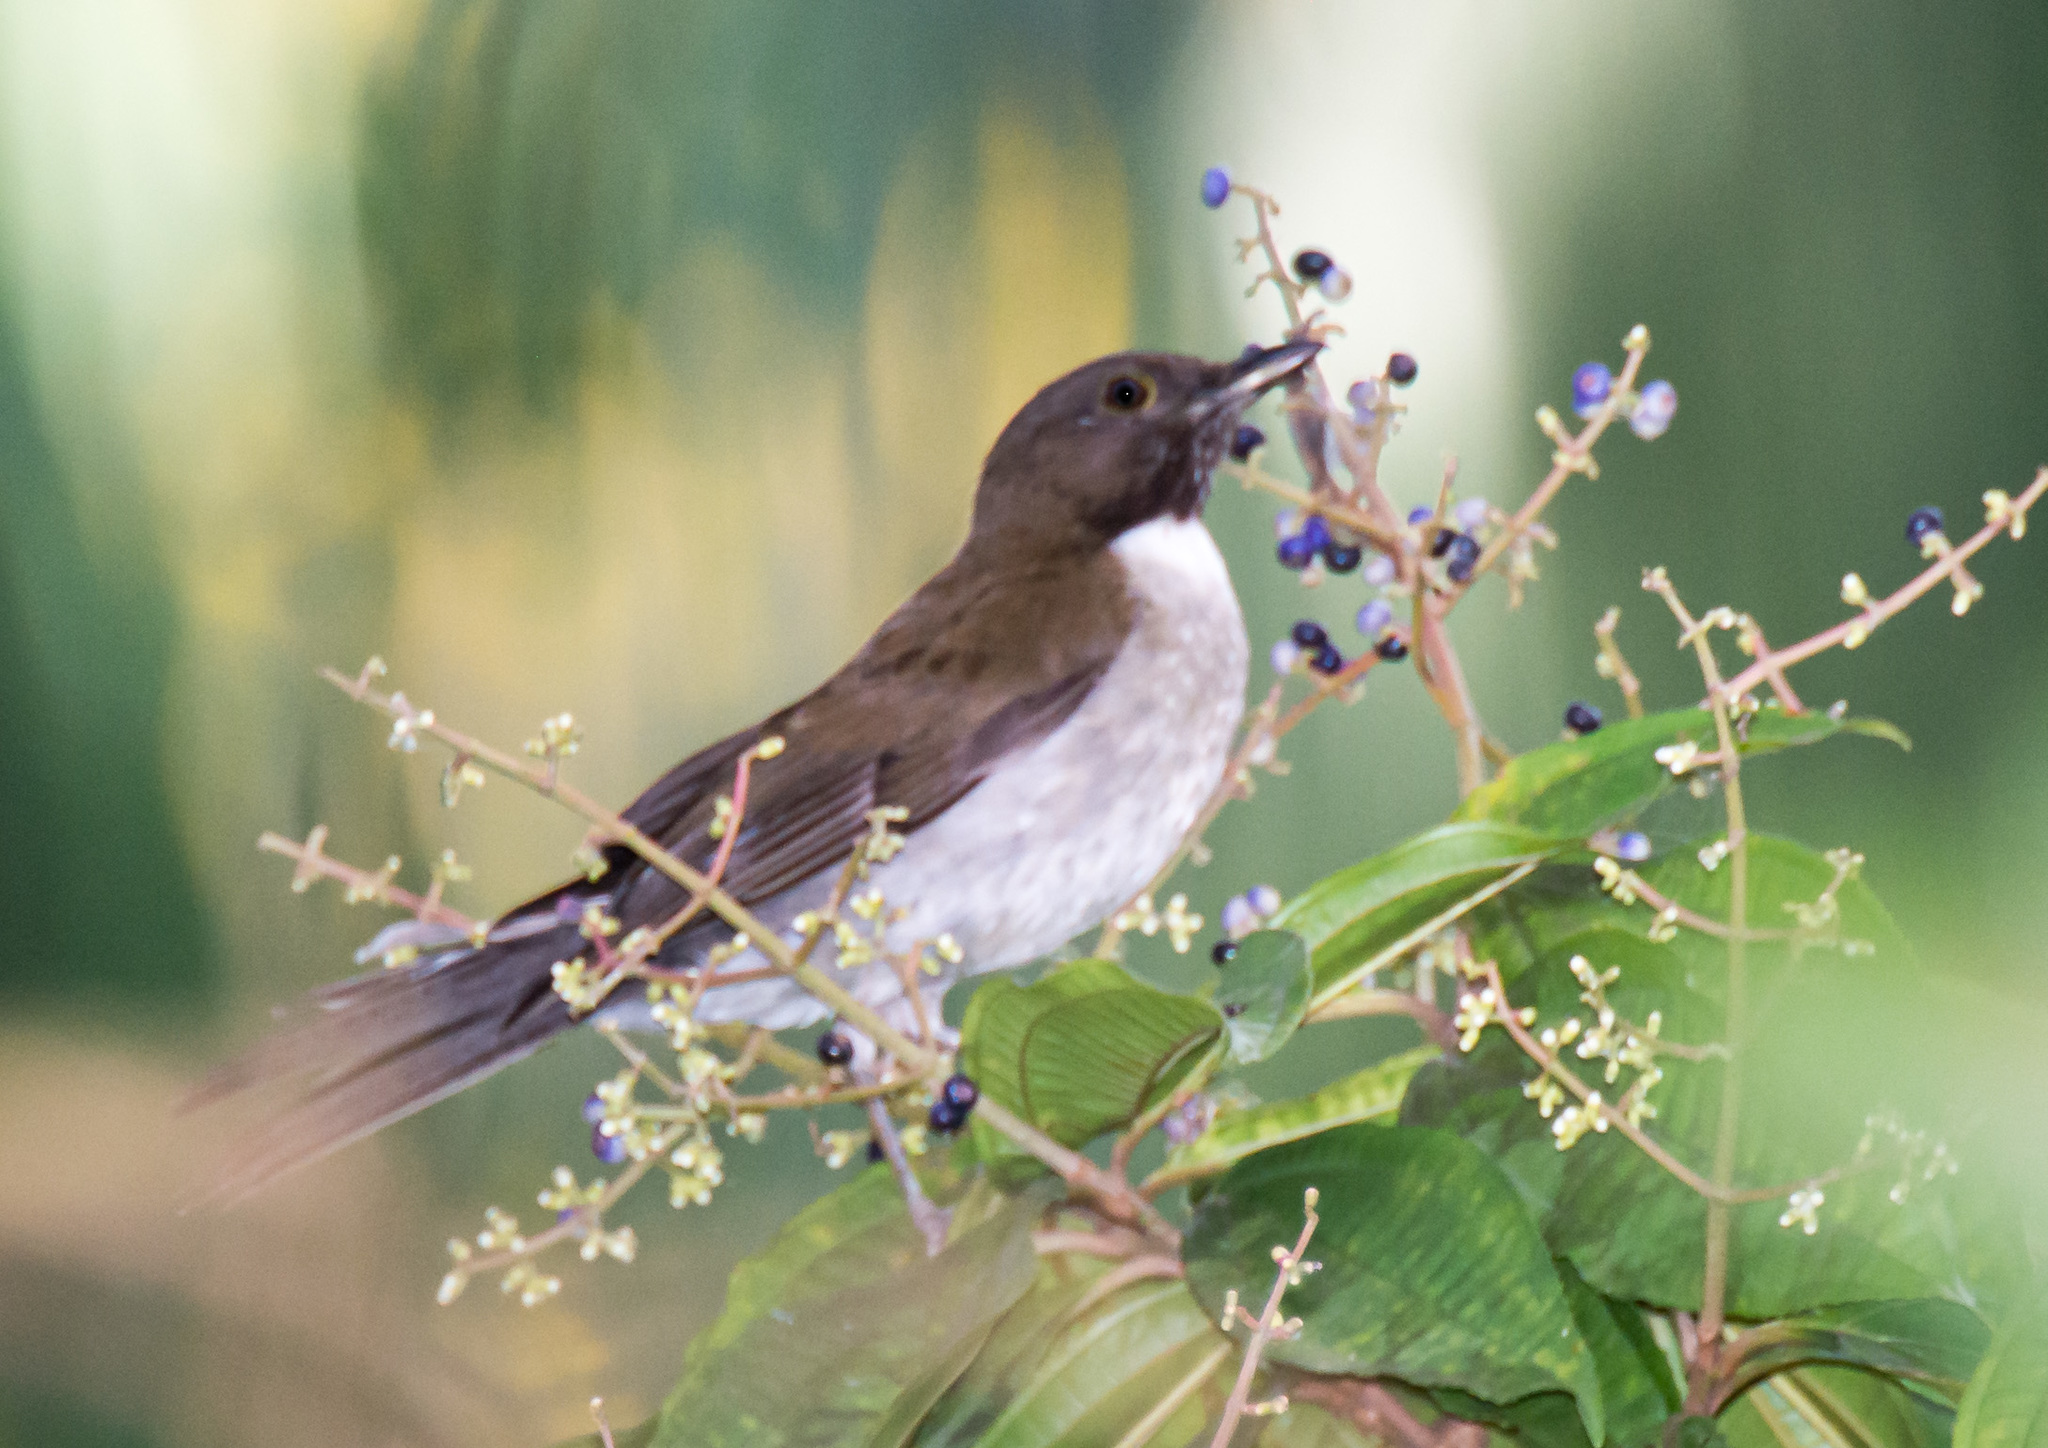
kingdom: Animalia
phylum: Chordata
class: Aves
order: Passeriformes
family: Turdidae
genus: Turdus
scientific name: Turdus albicollis
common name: White-necked thrush
